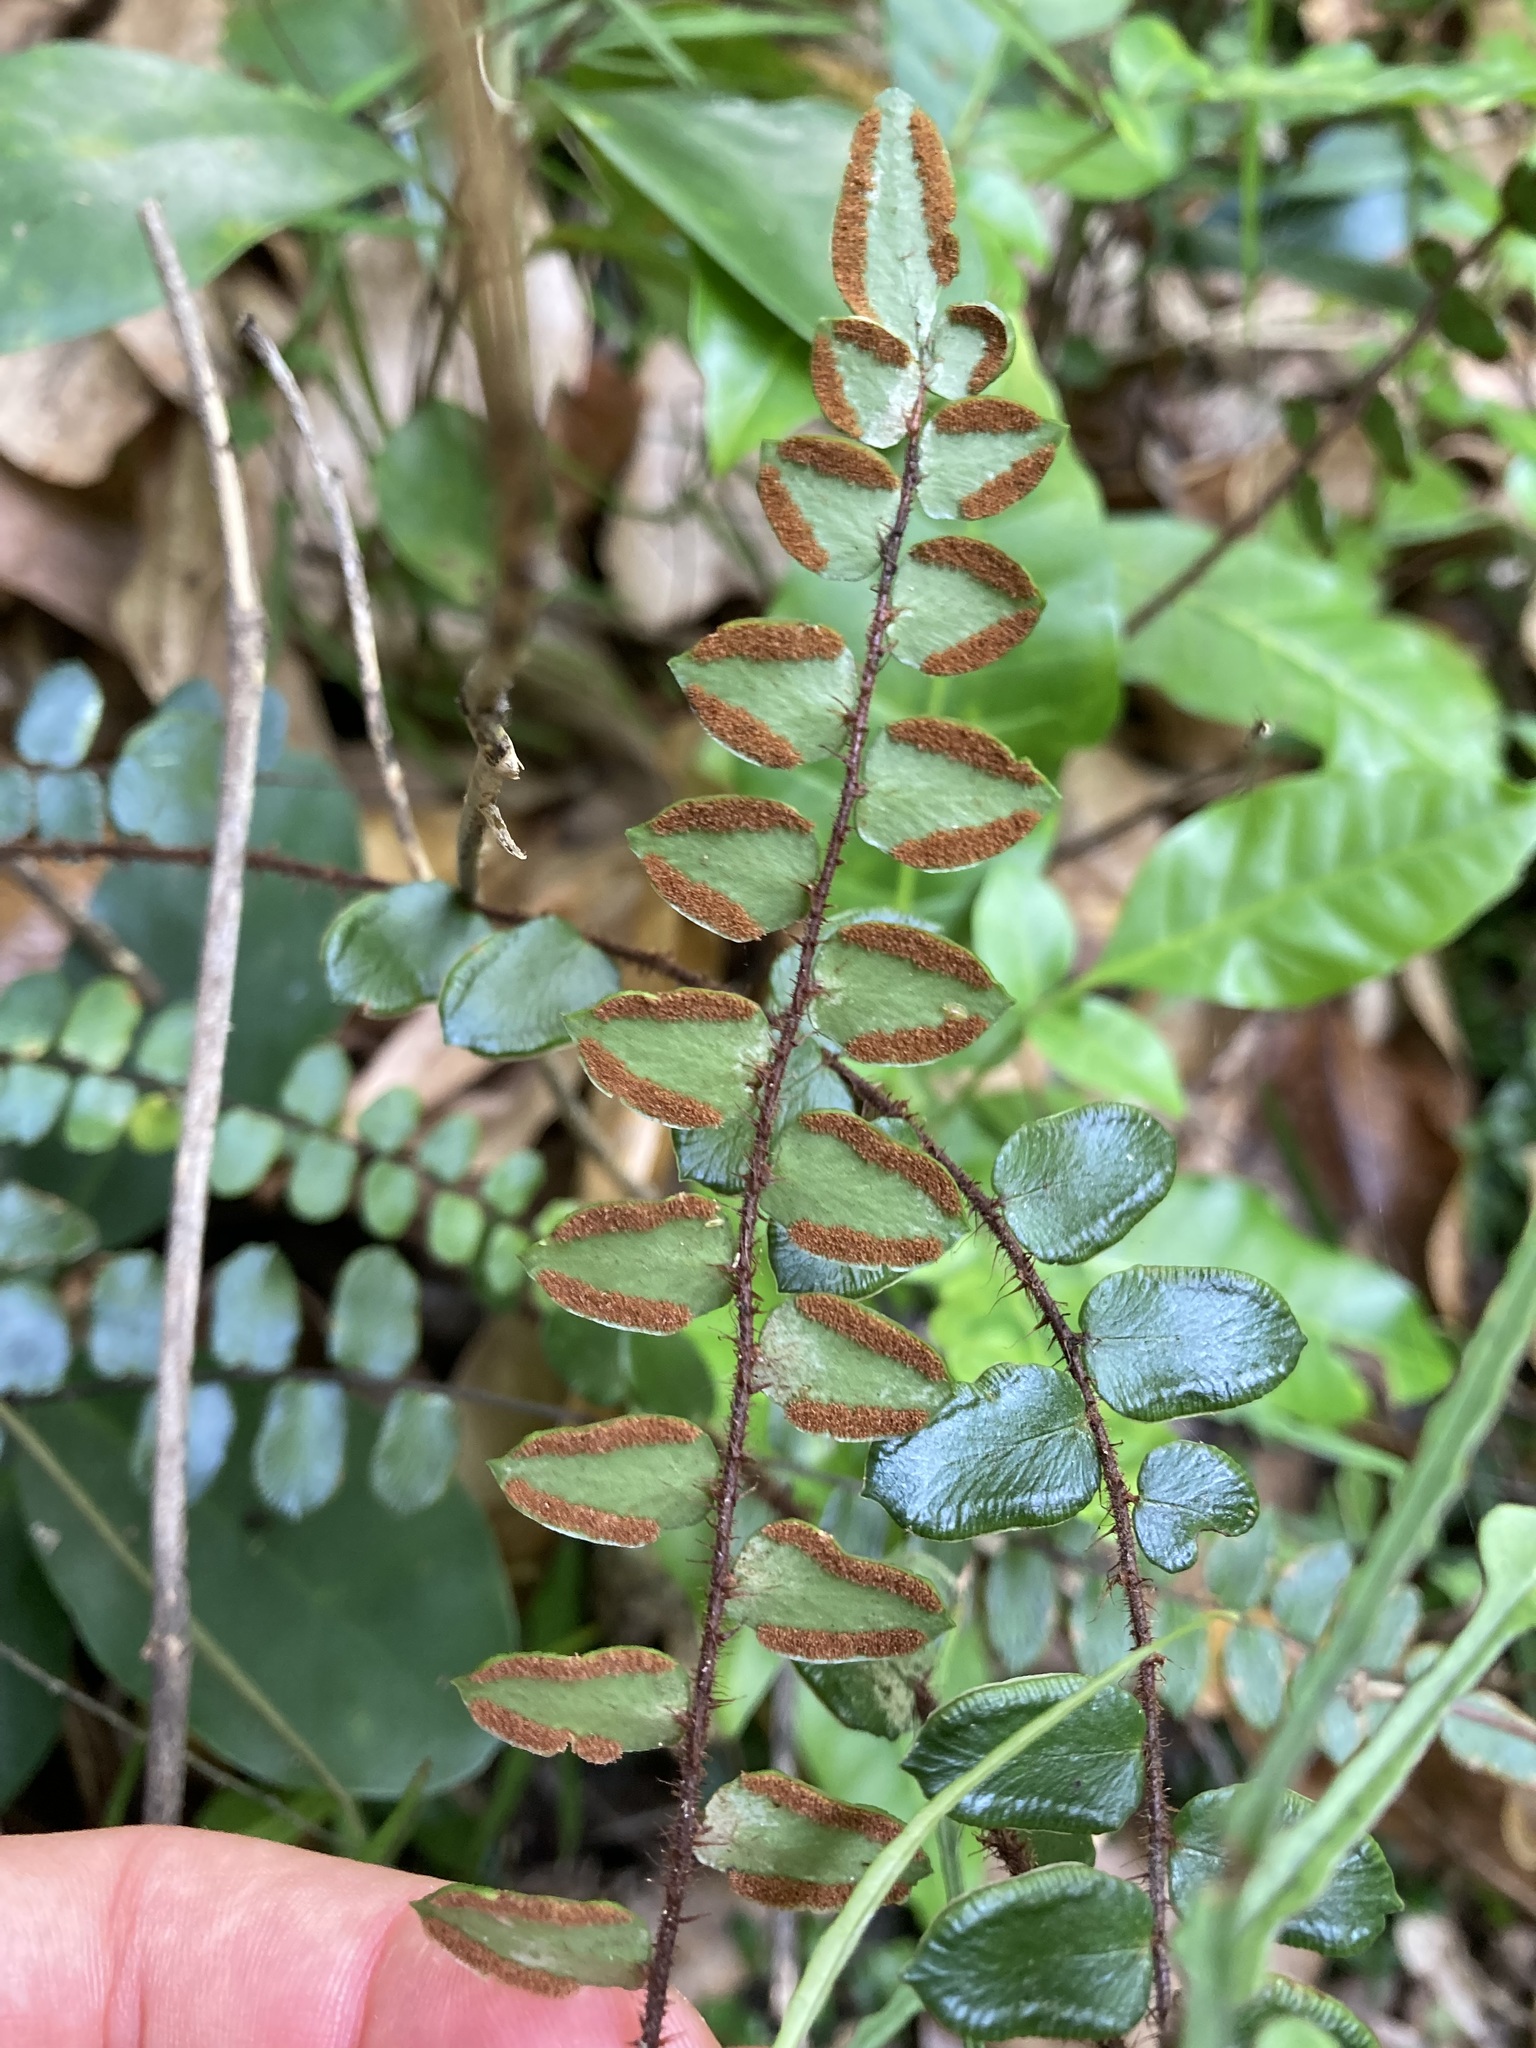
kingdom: Plantae
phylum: Tracheophyta
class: Polypodiopsida
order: Polypodiales
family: Pteridaceae
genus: Pellaea
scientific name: Pellaea rotundifolia
